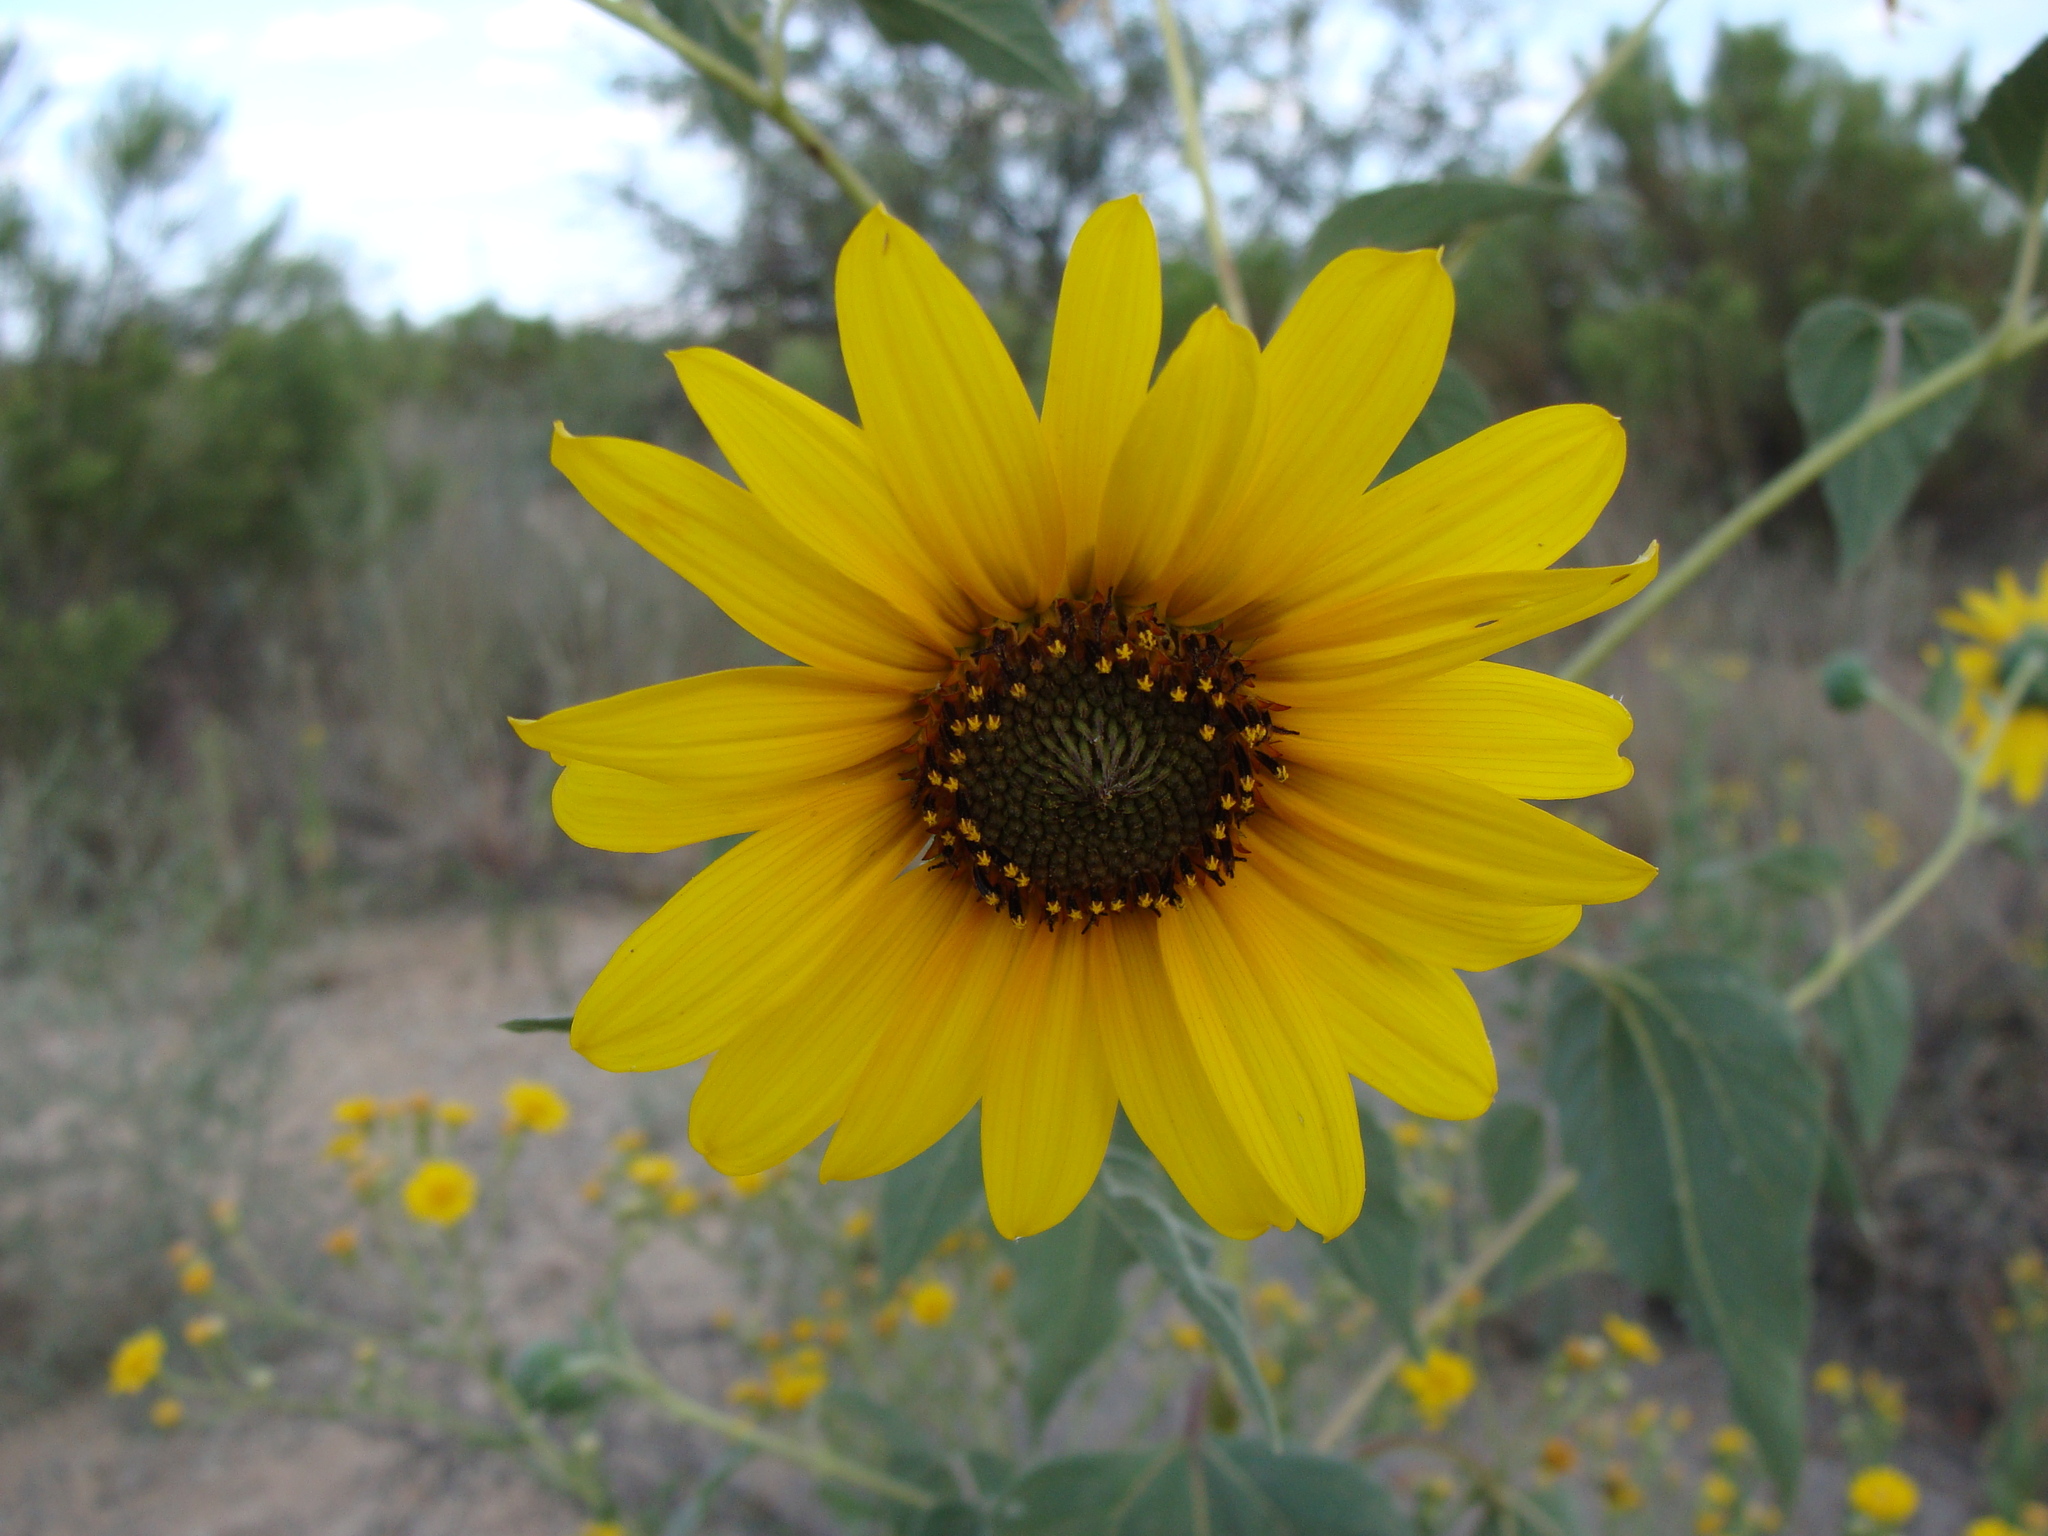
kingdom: Plantae
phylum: Tracheophyta
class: Magnoliopsida
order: Asterales
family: Asteraceae
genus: Helianthus
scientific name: Helianthus annuus
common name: Sunflower
